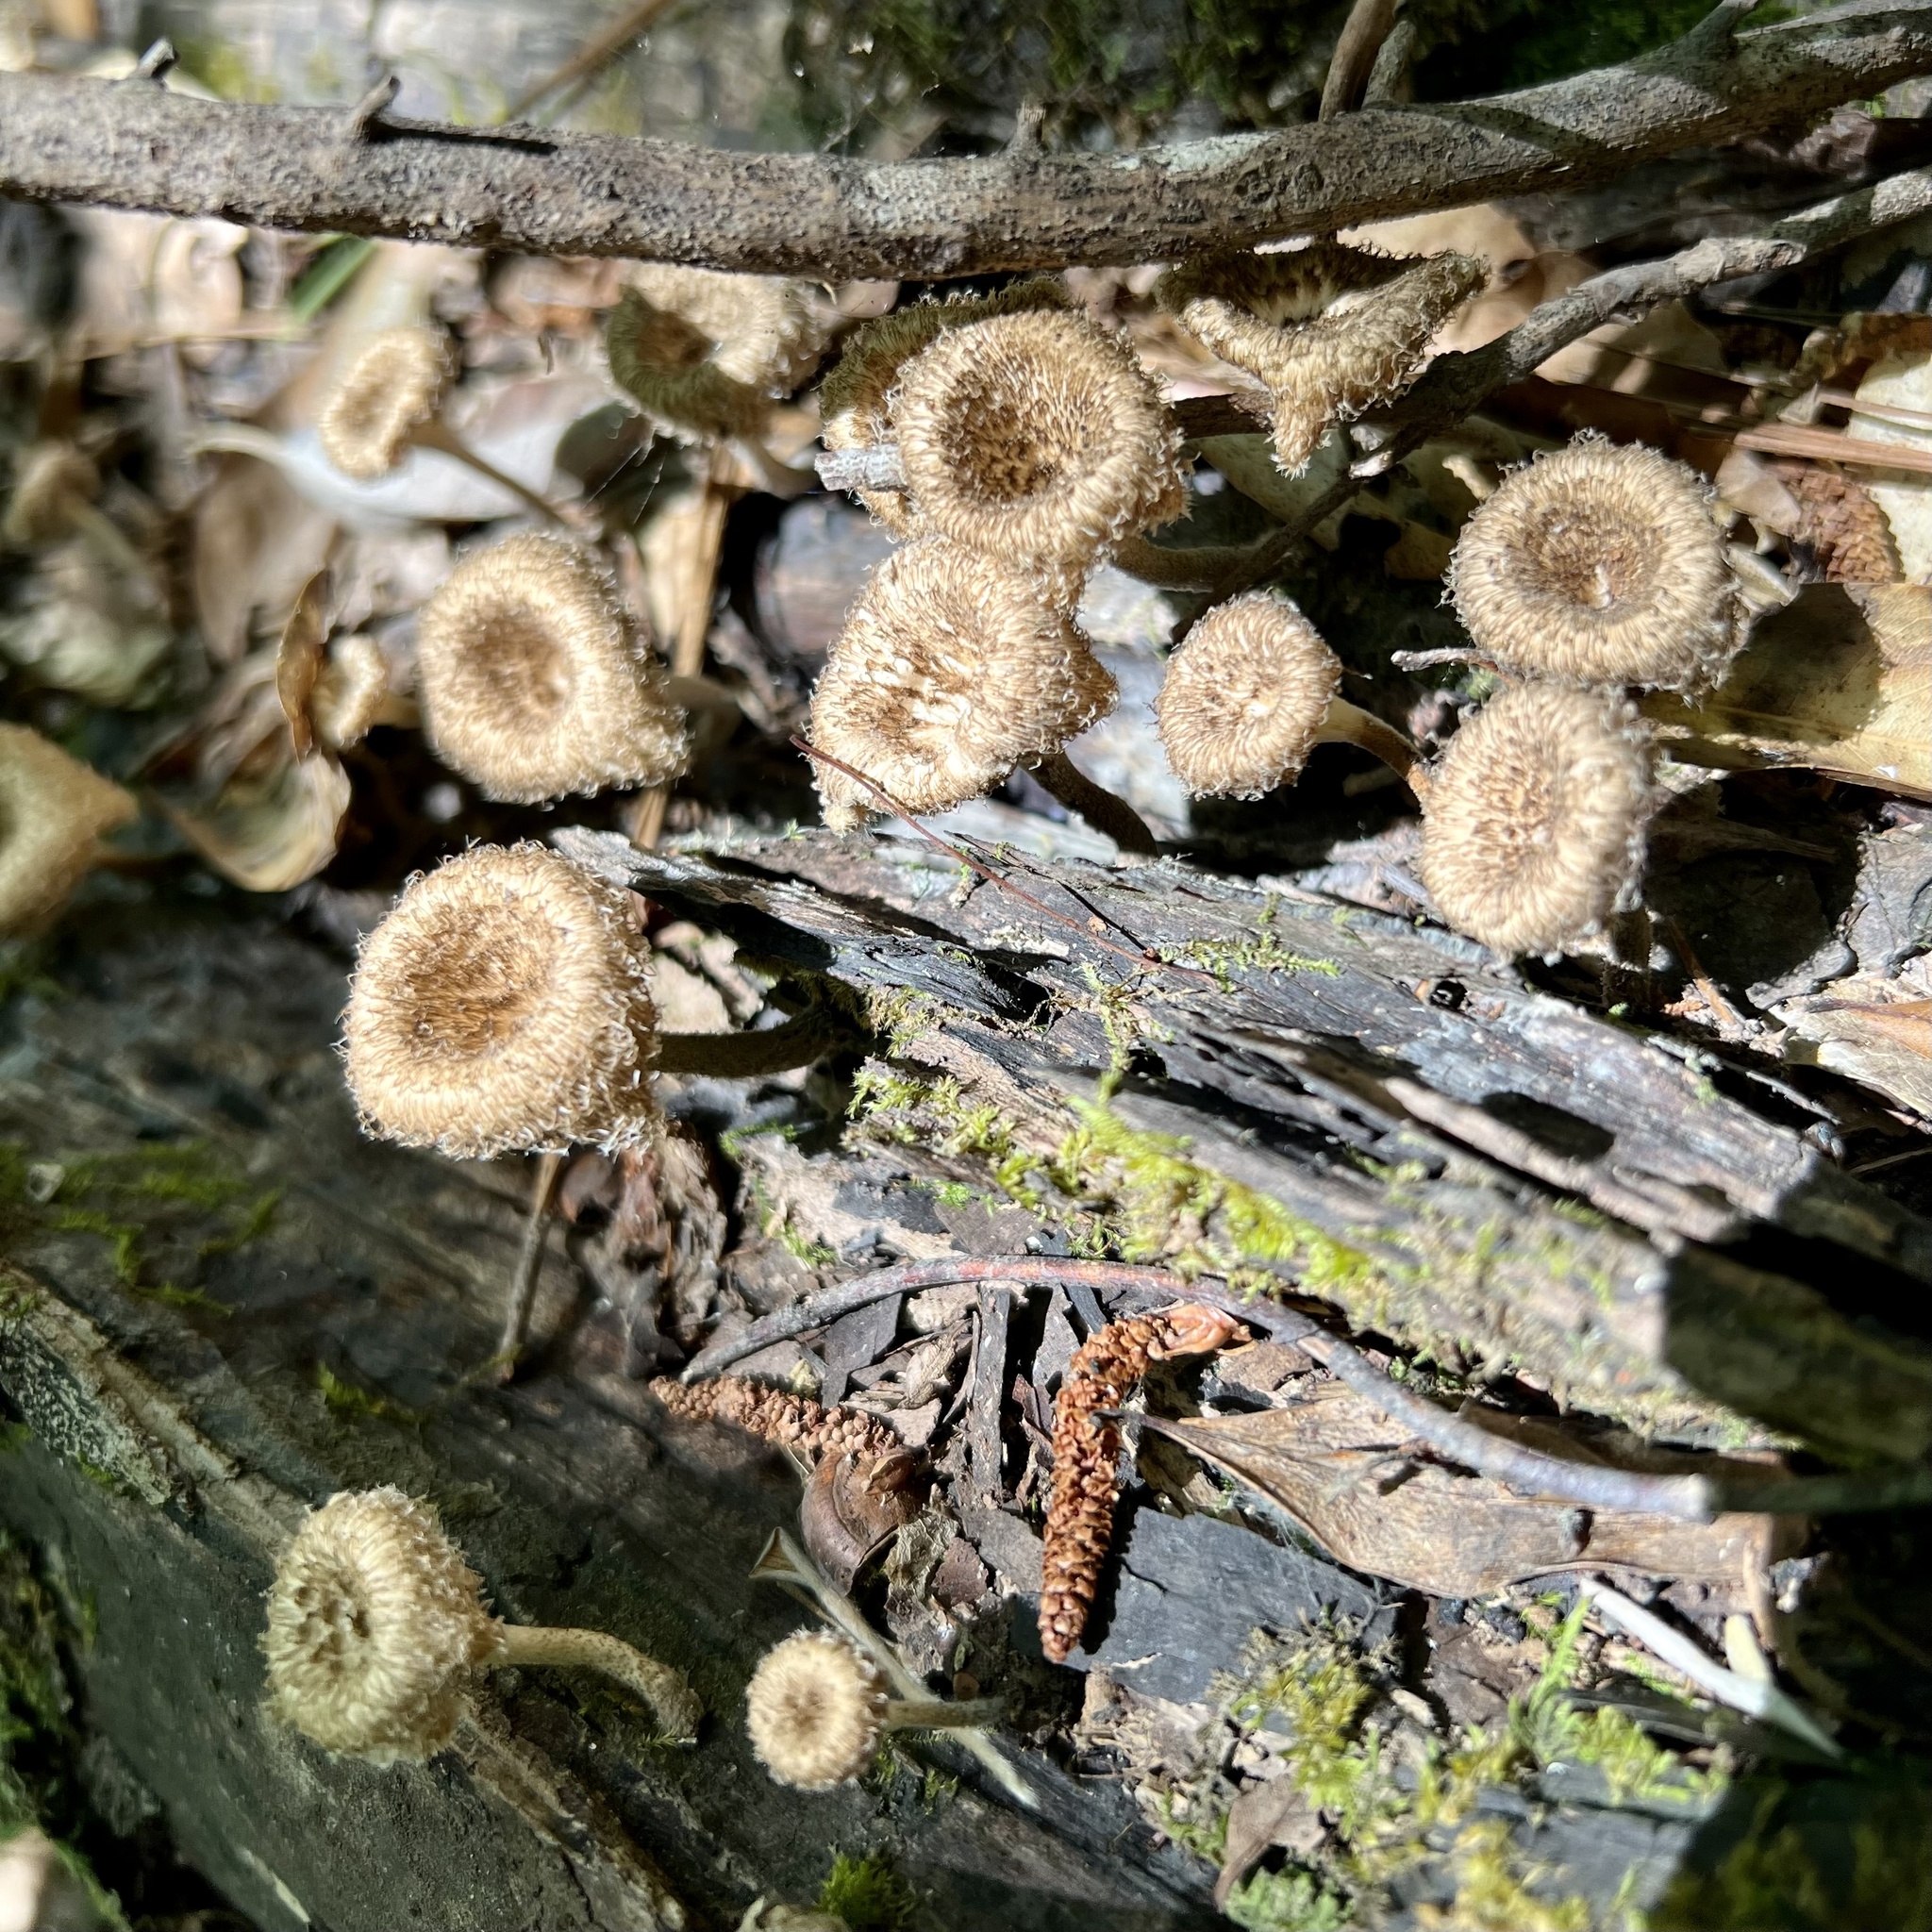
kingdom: Fungi
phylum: Basidiomycota
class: Agaricomycetes
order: Polyporales
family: Polyporaceae
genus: Lentinus
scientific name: Lentinus crinitus
